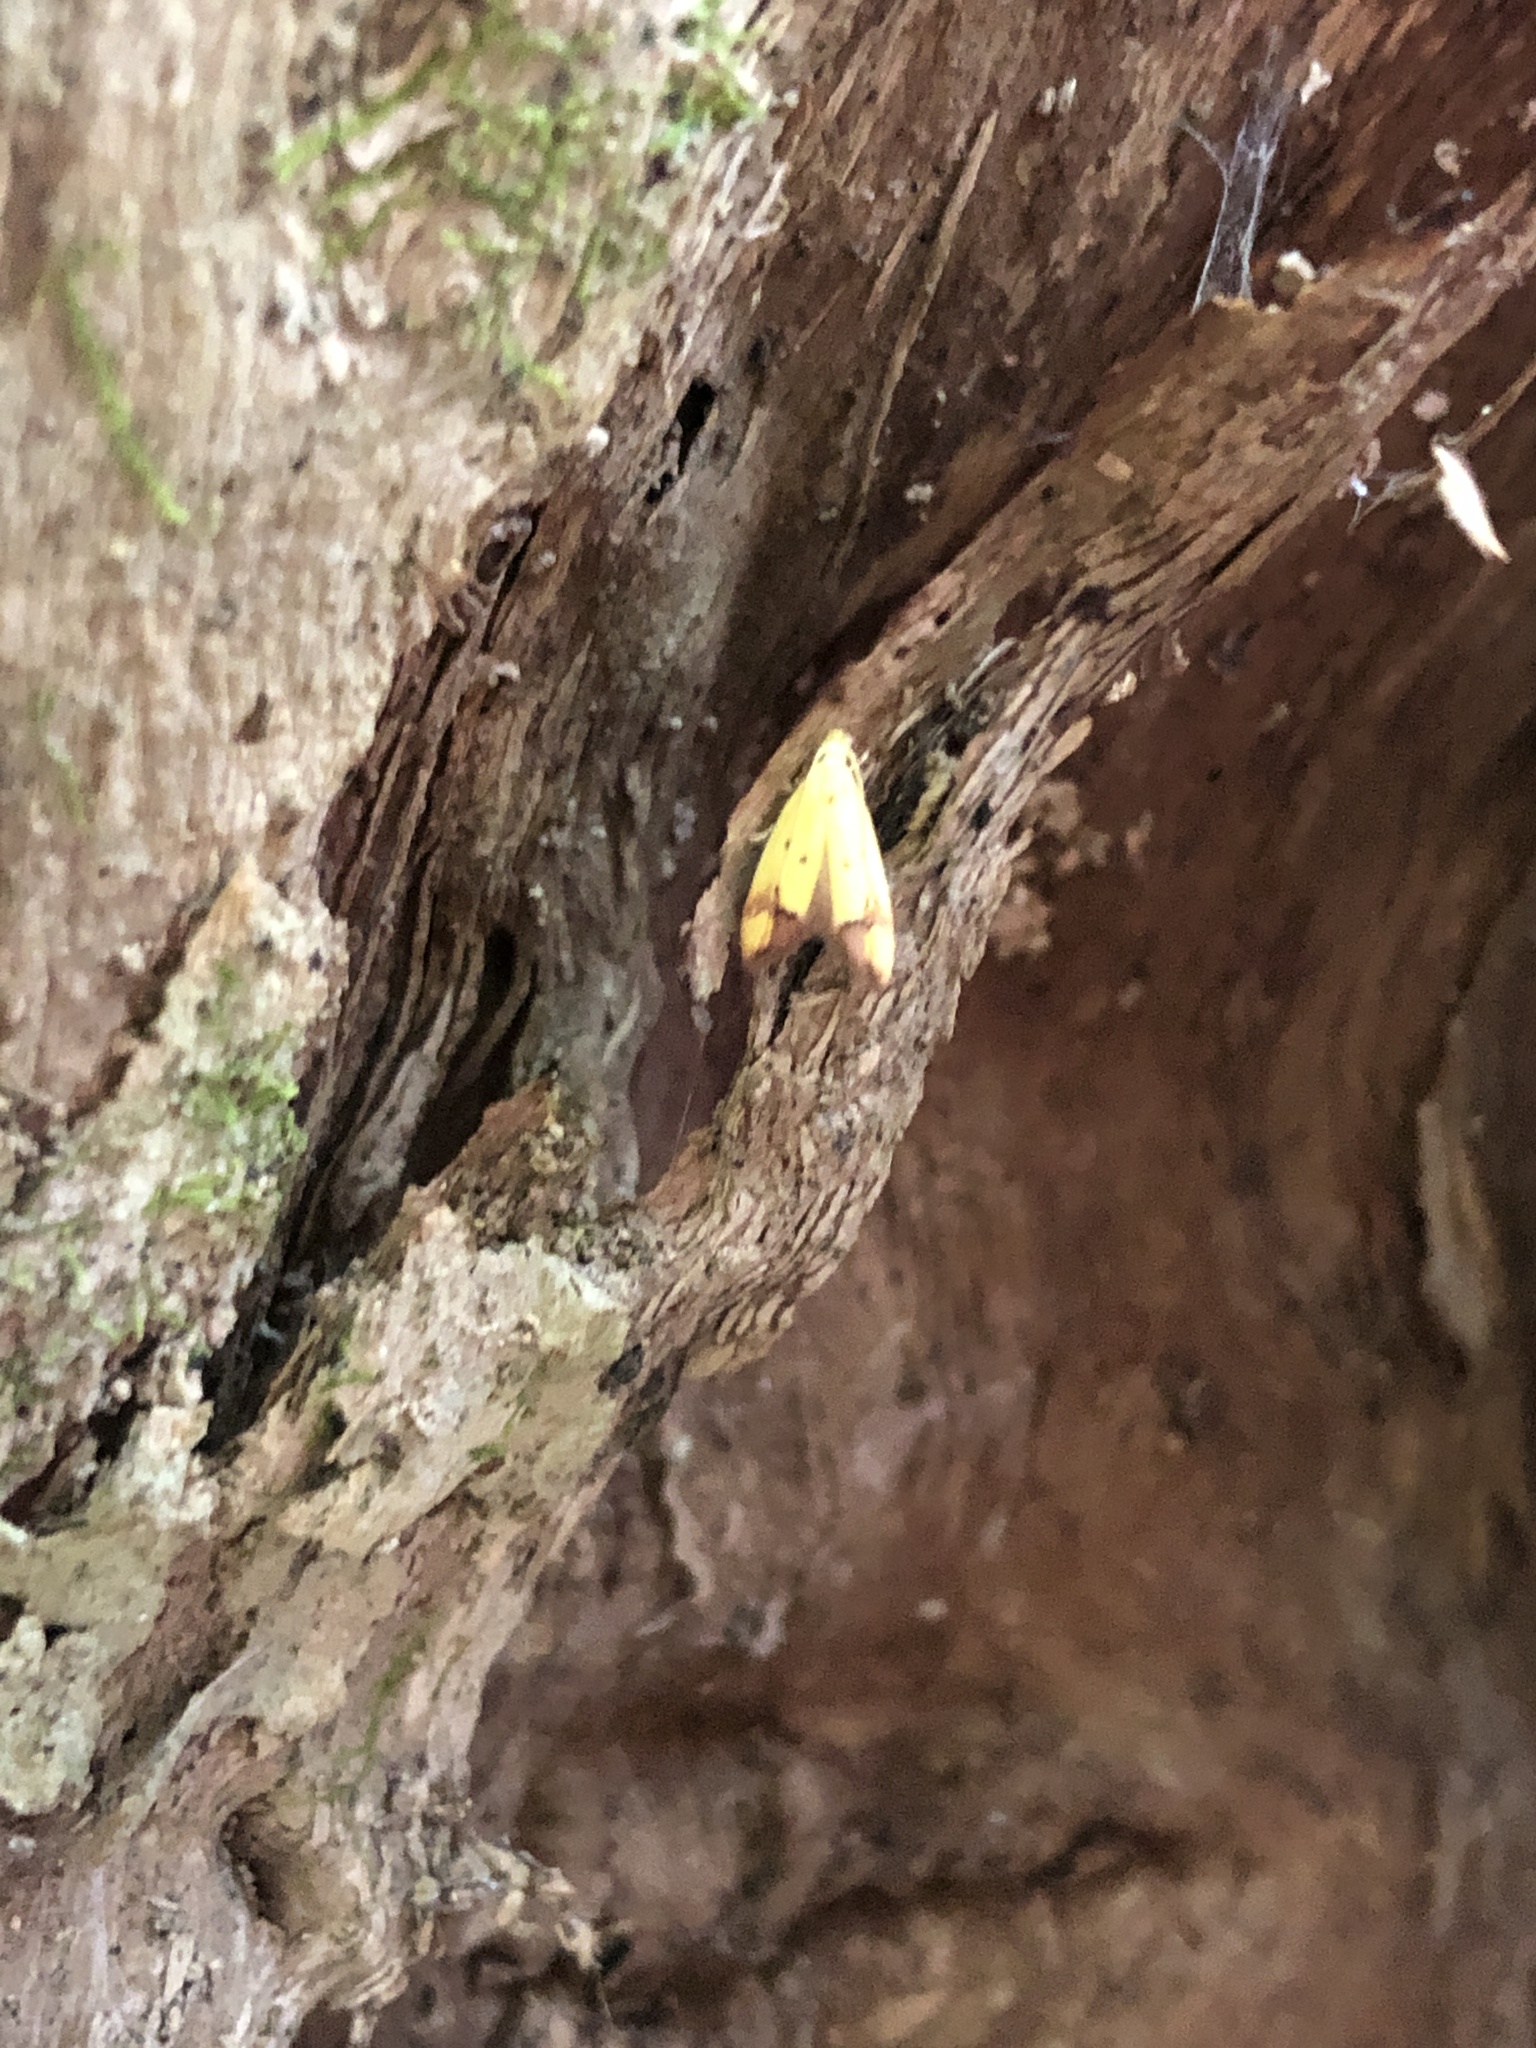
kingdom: Animalia
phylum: Arthropoda
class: Insecta
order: Lepidoptera
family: Oecophoridae
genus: Gymnobathra
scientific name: Gymnobathra flavidella
